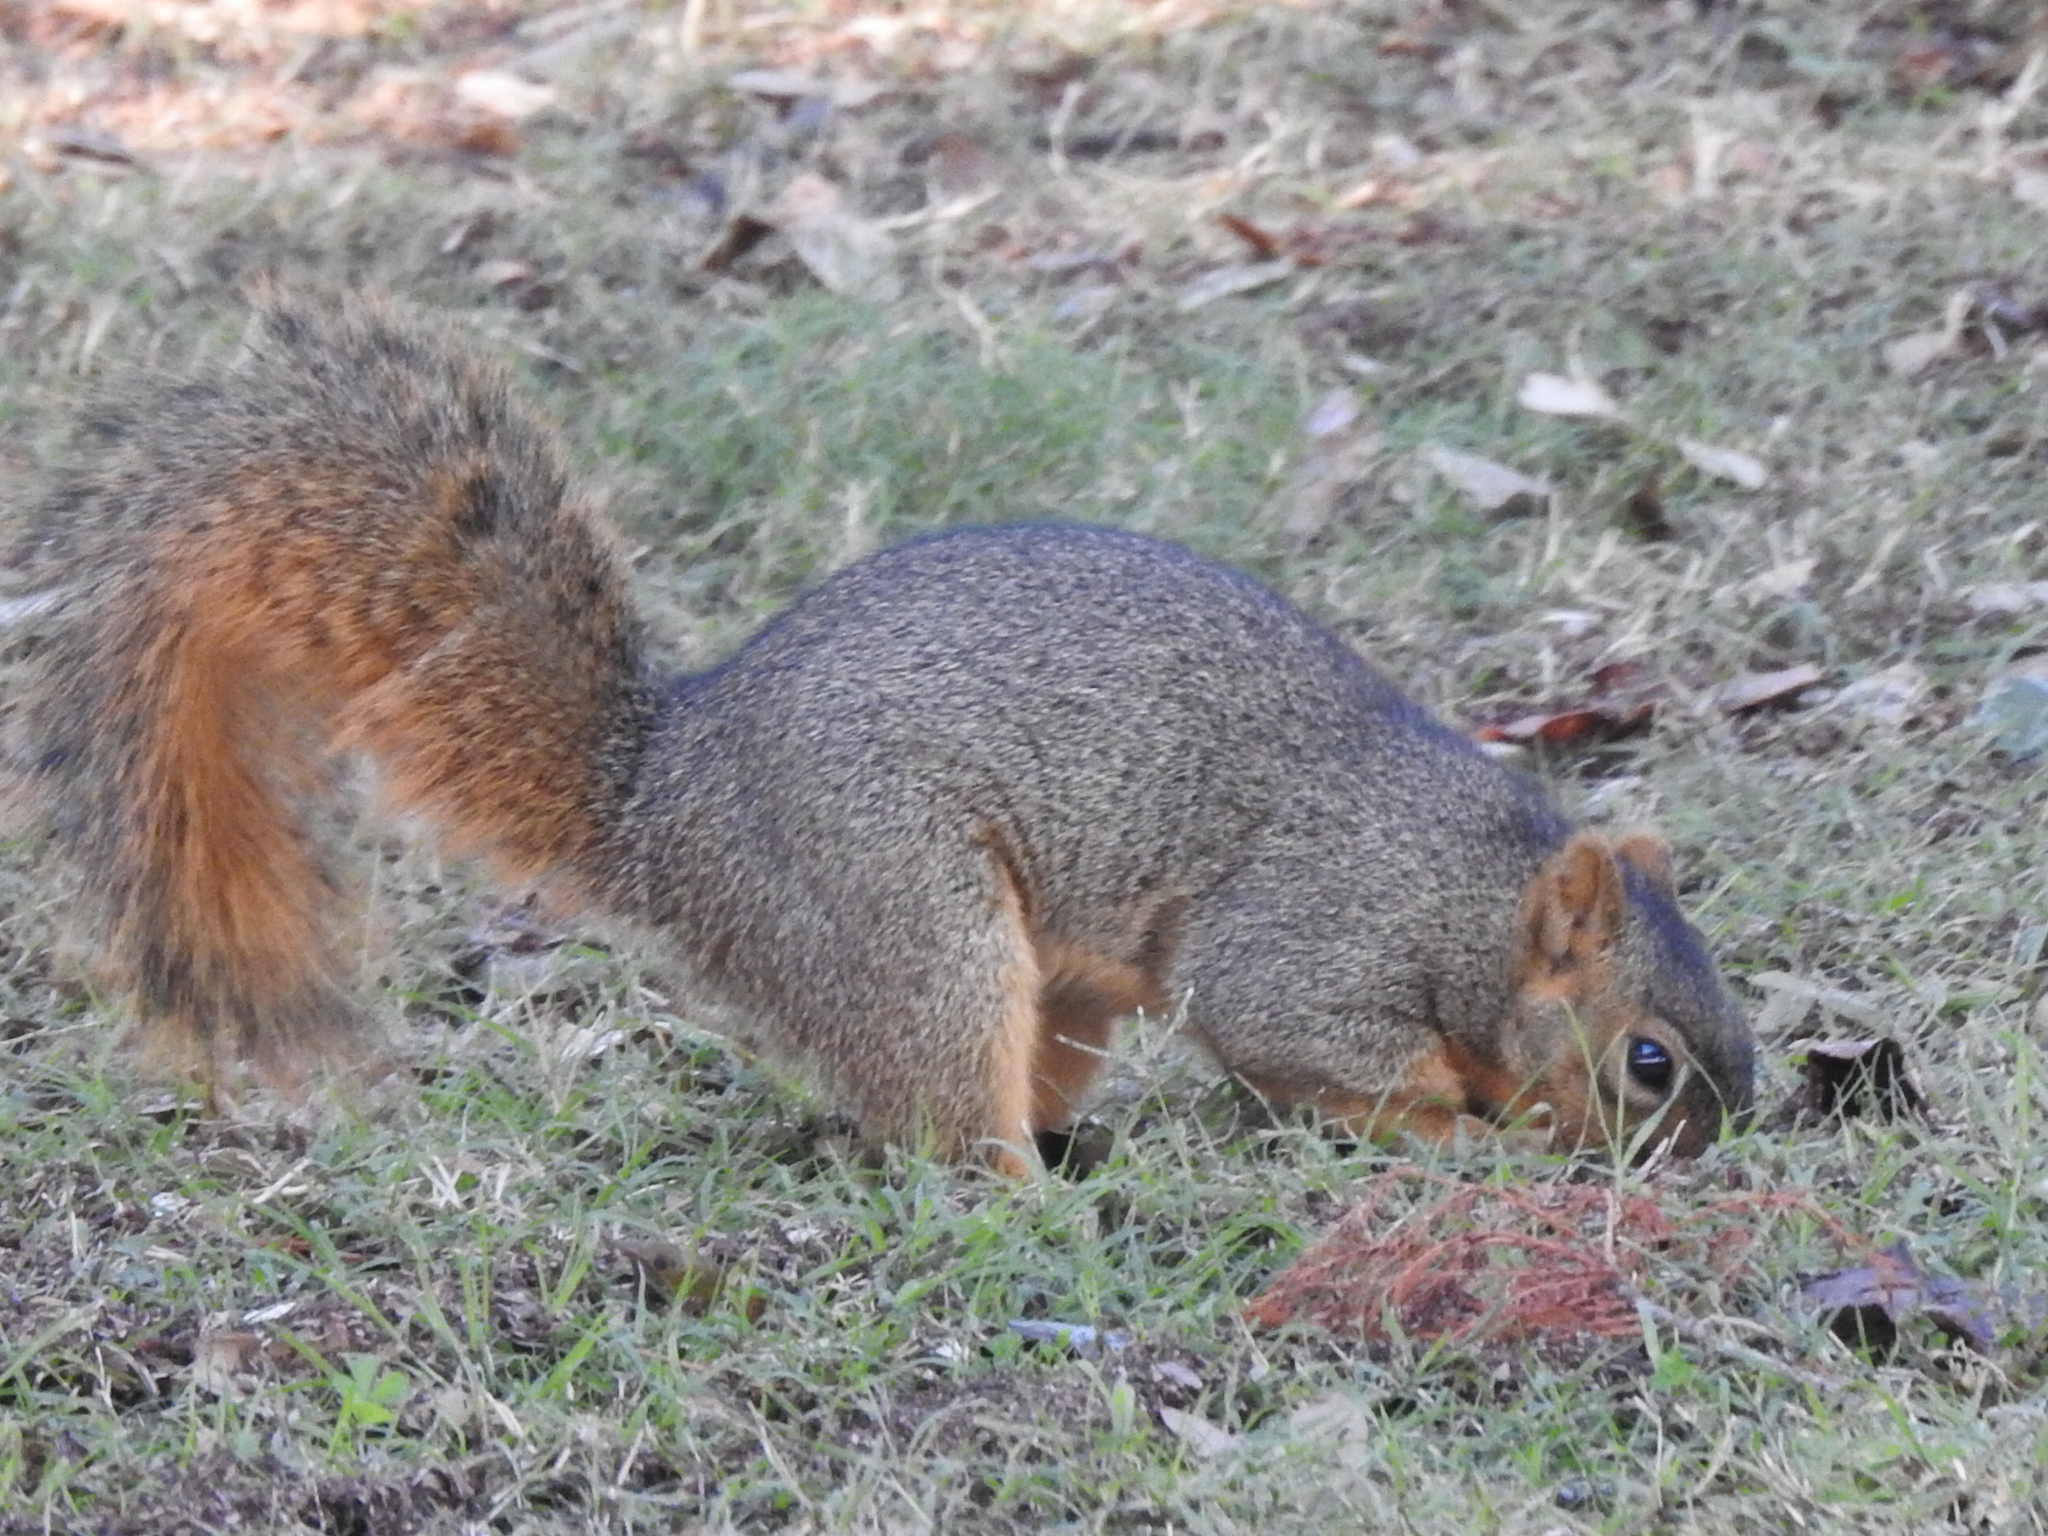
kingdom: Animalia
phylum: Chordata
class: Mammalia
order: Rodentia
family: Sciuridae
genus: Sciurus
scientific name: Sciurus niger
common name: Fox squirrel
